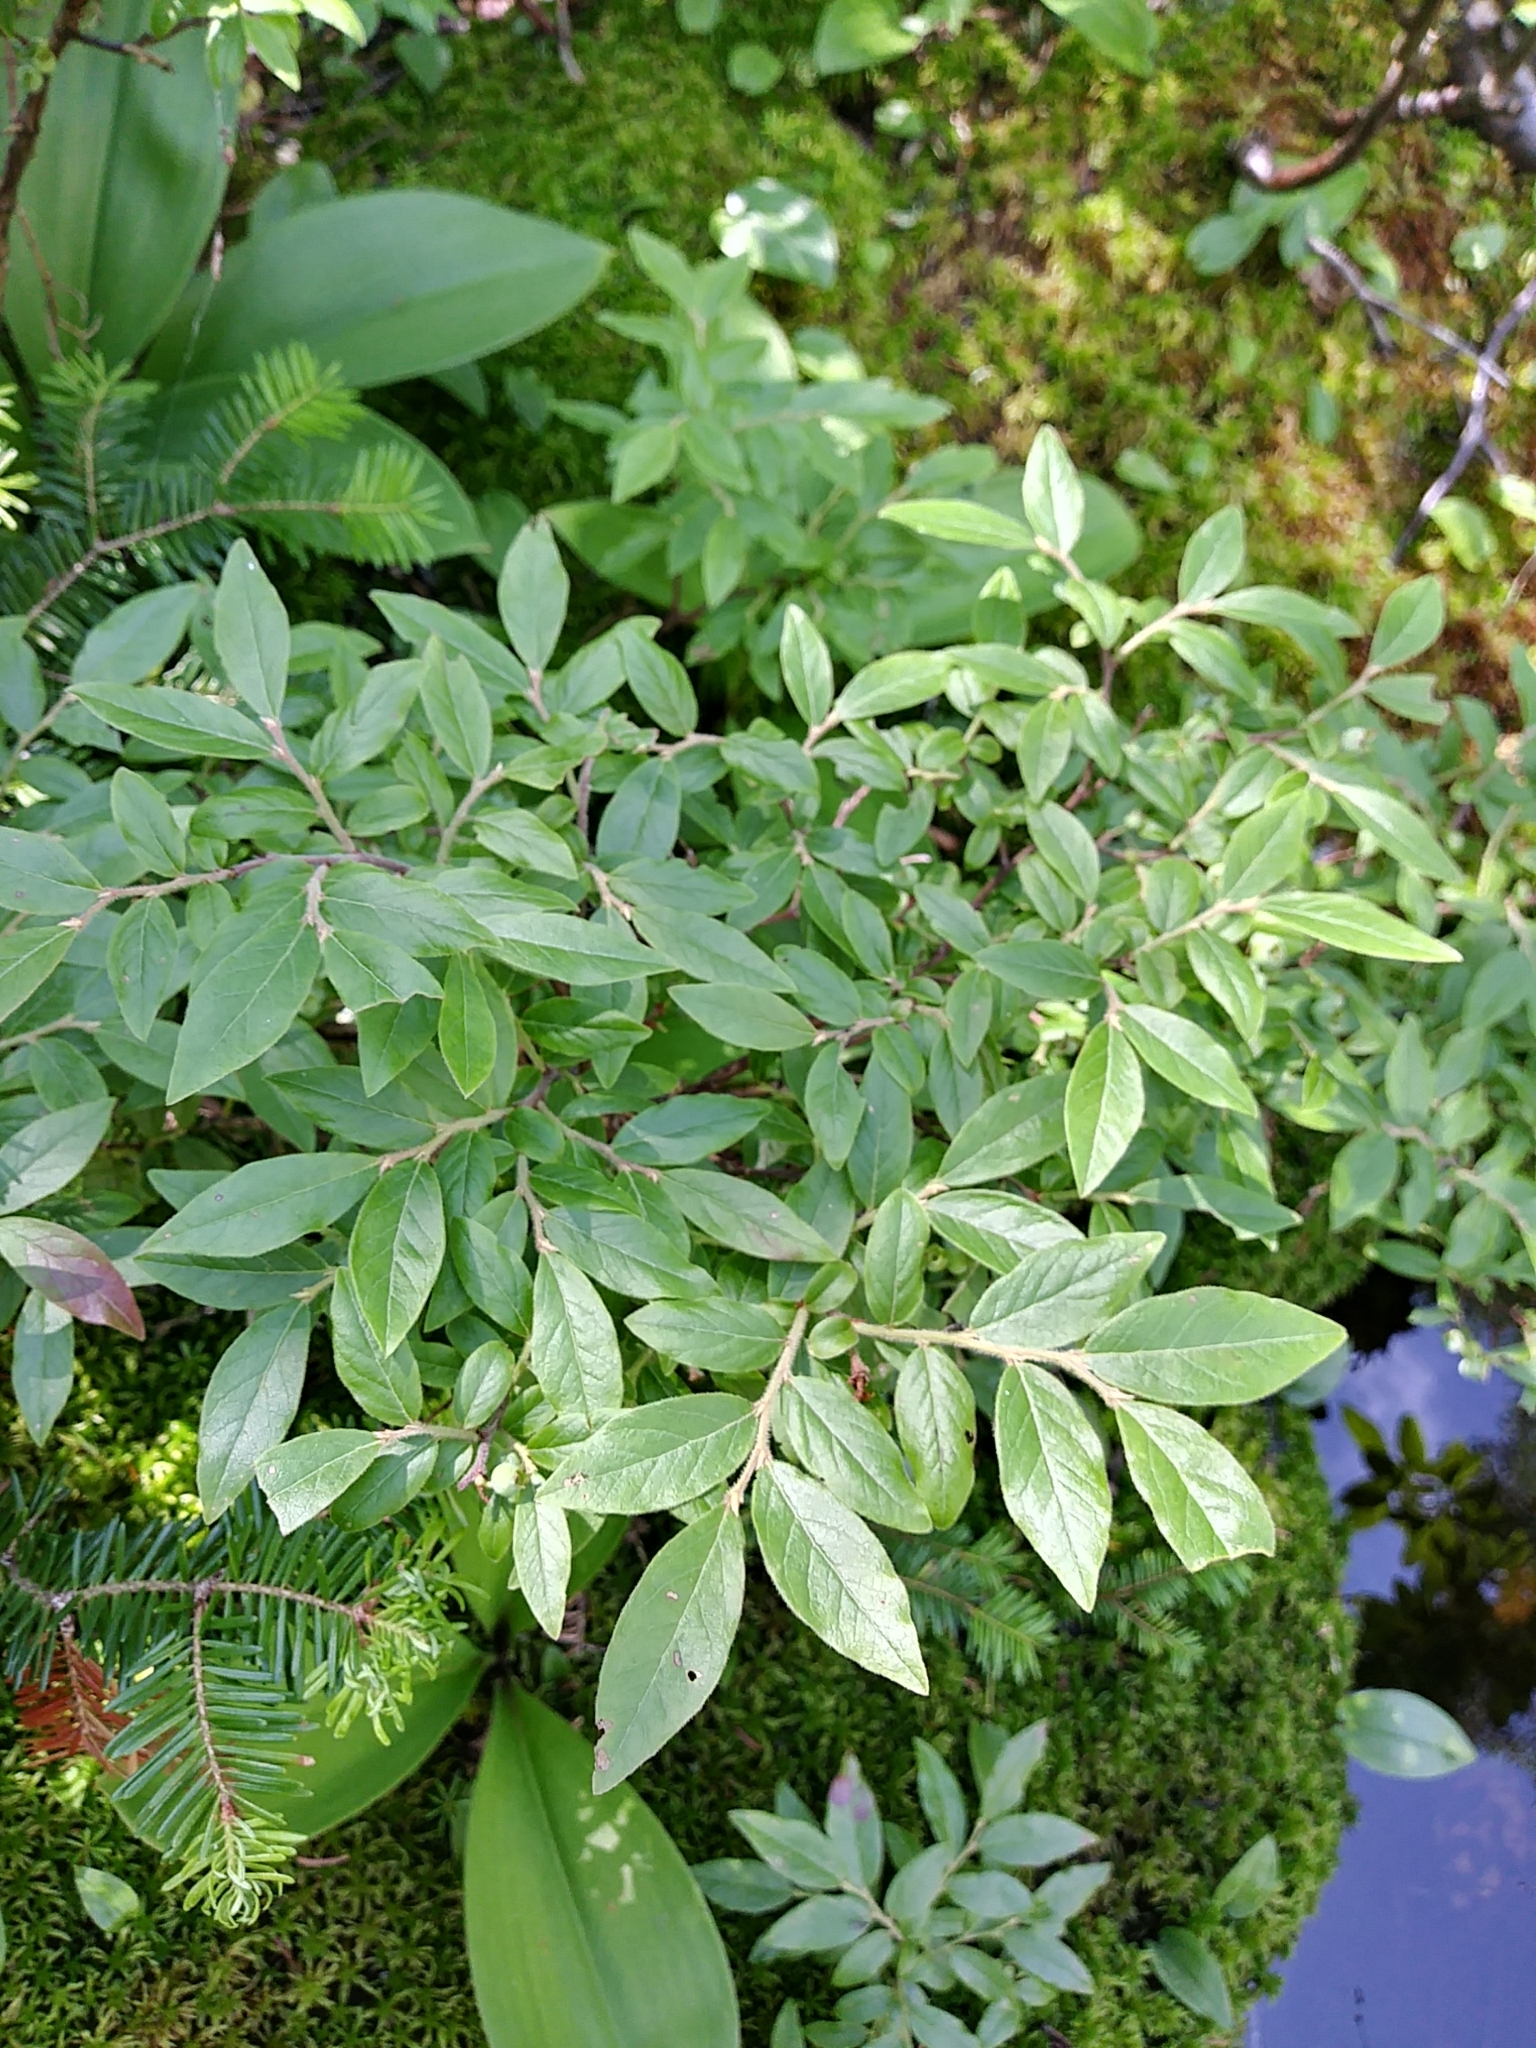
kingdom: Plantae
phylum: Tracheophyta
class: Magnoliopsida
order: Ericales
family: Ericaceae
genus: Vaccinium
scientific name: Vaccinium myrtilloides
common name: Canada blueberry
